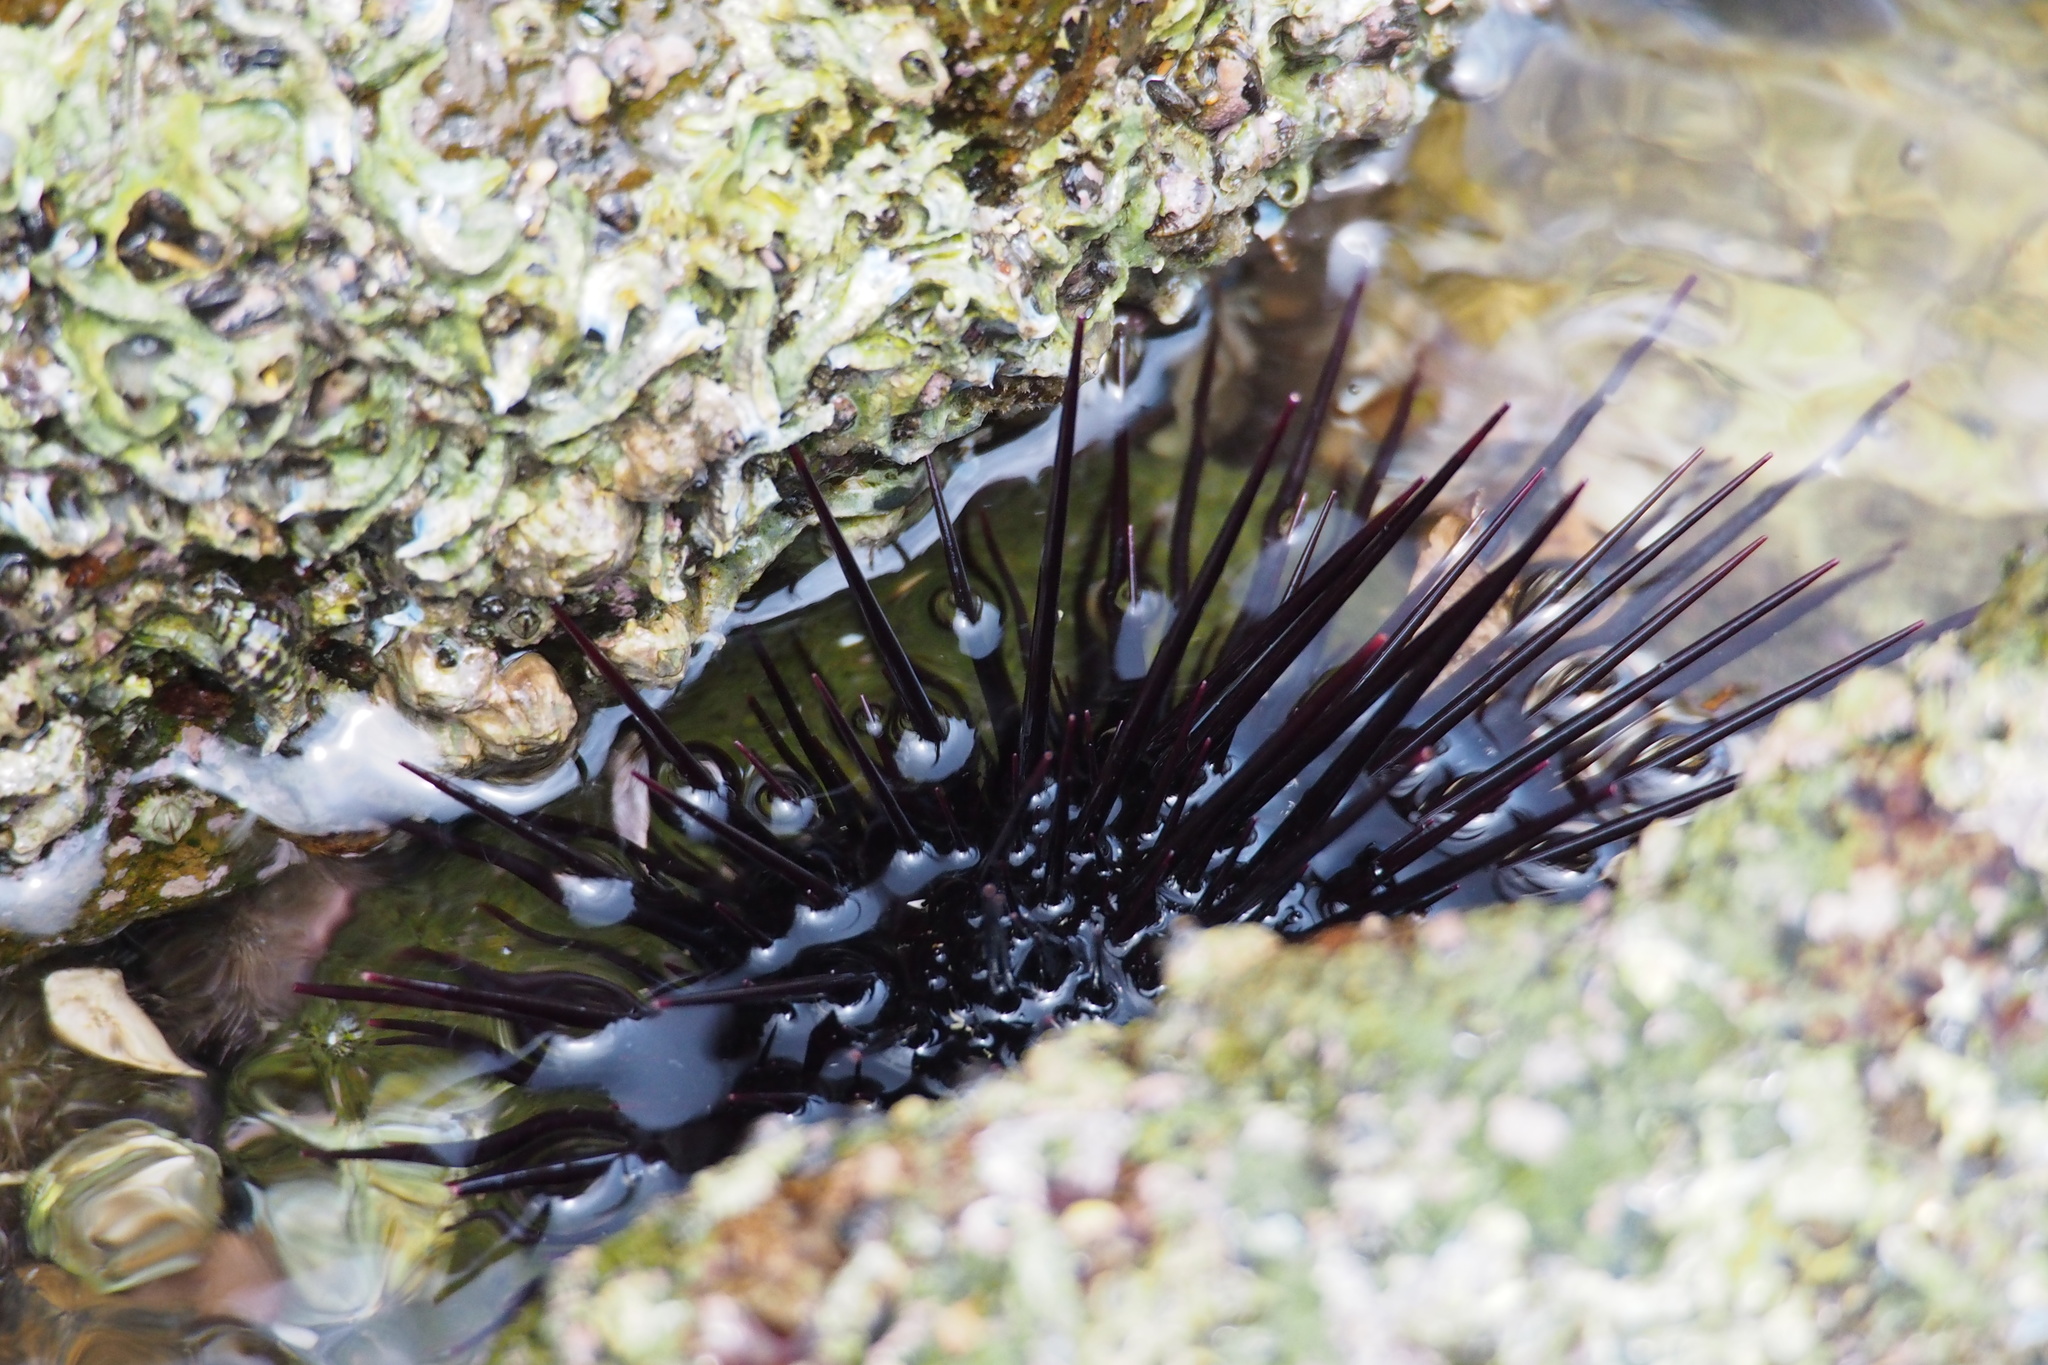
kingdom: Animalia
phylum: Echinodermata
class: Echinoidea
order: Camarodonta
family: Echinometridae
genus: Heliocidaris
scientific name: Heliocidaris crassispina
